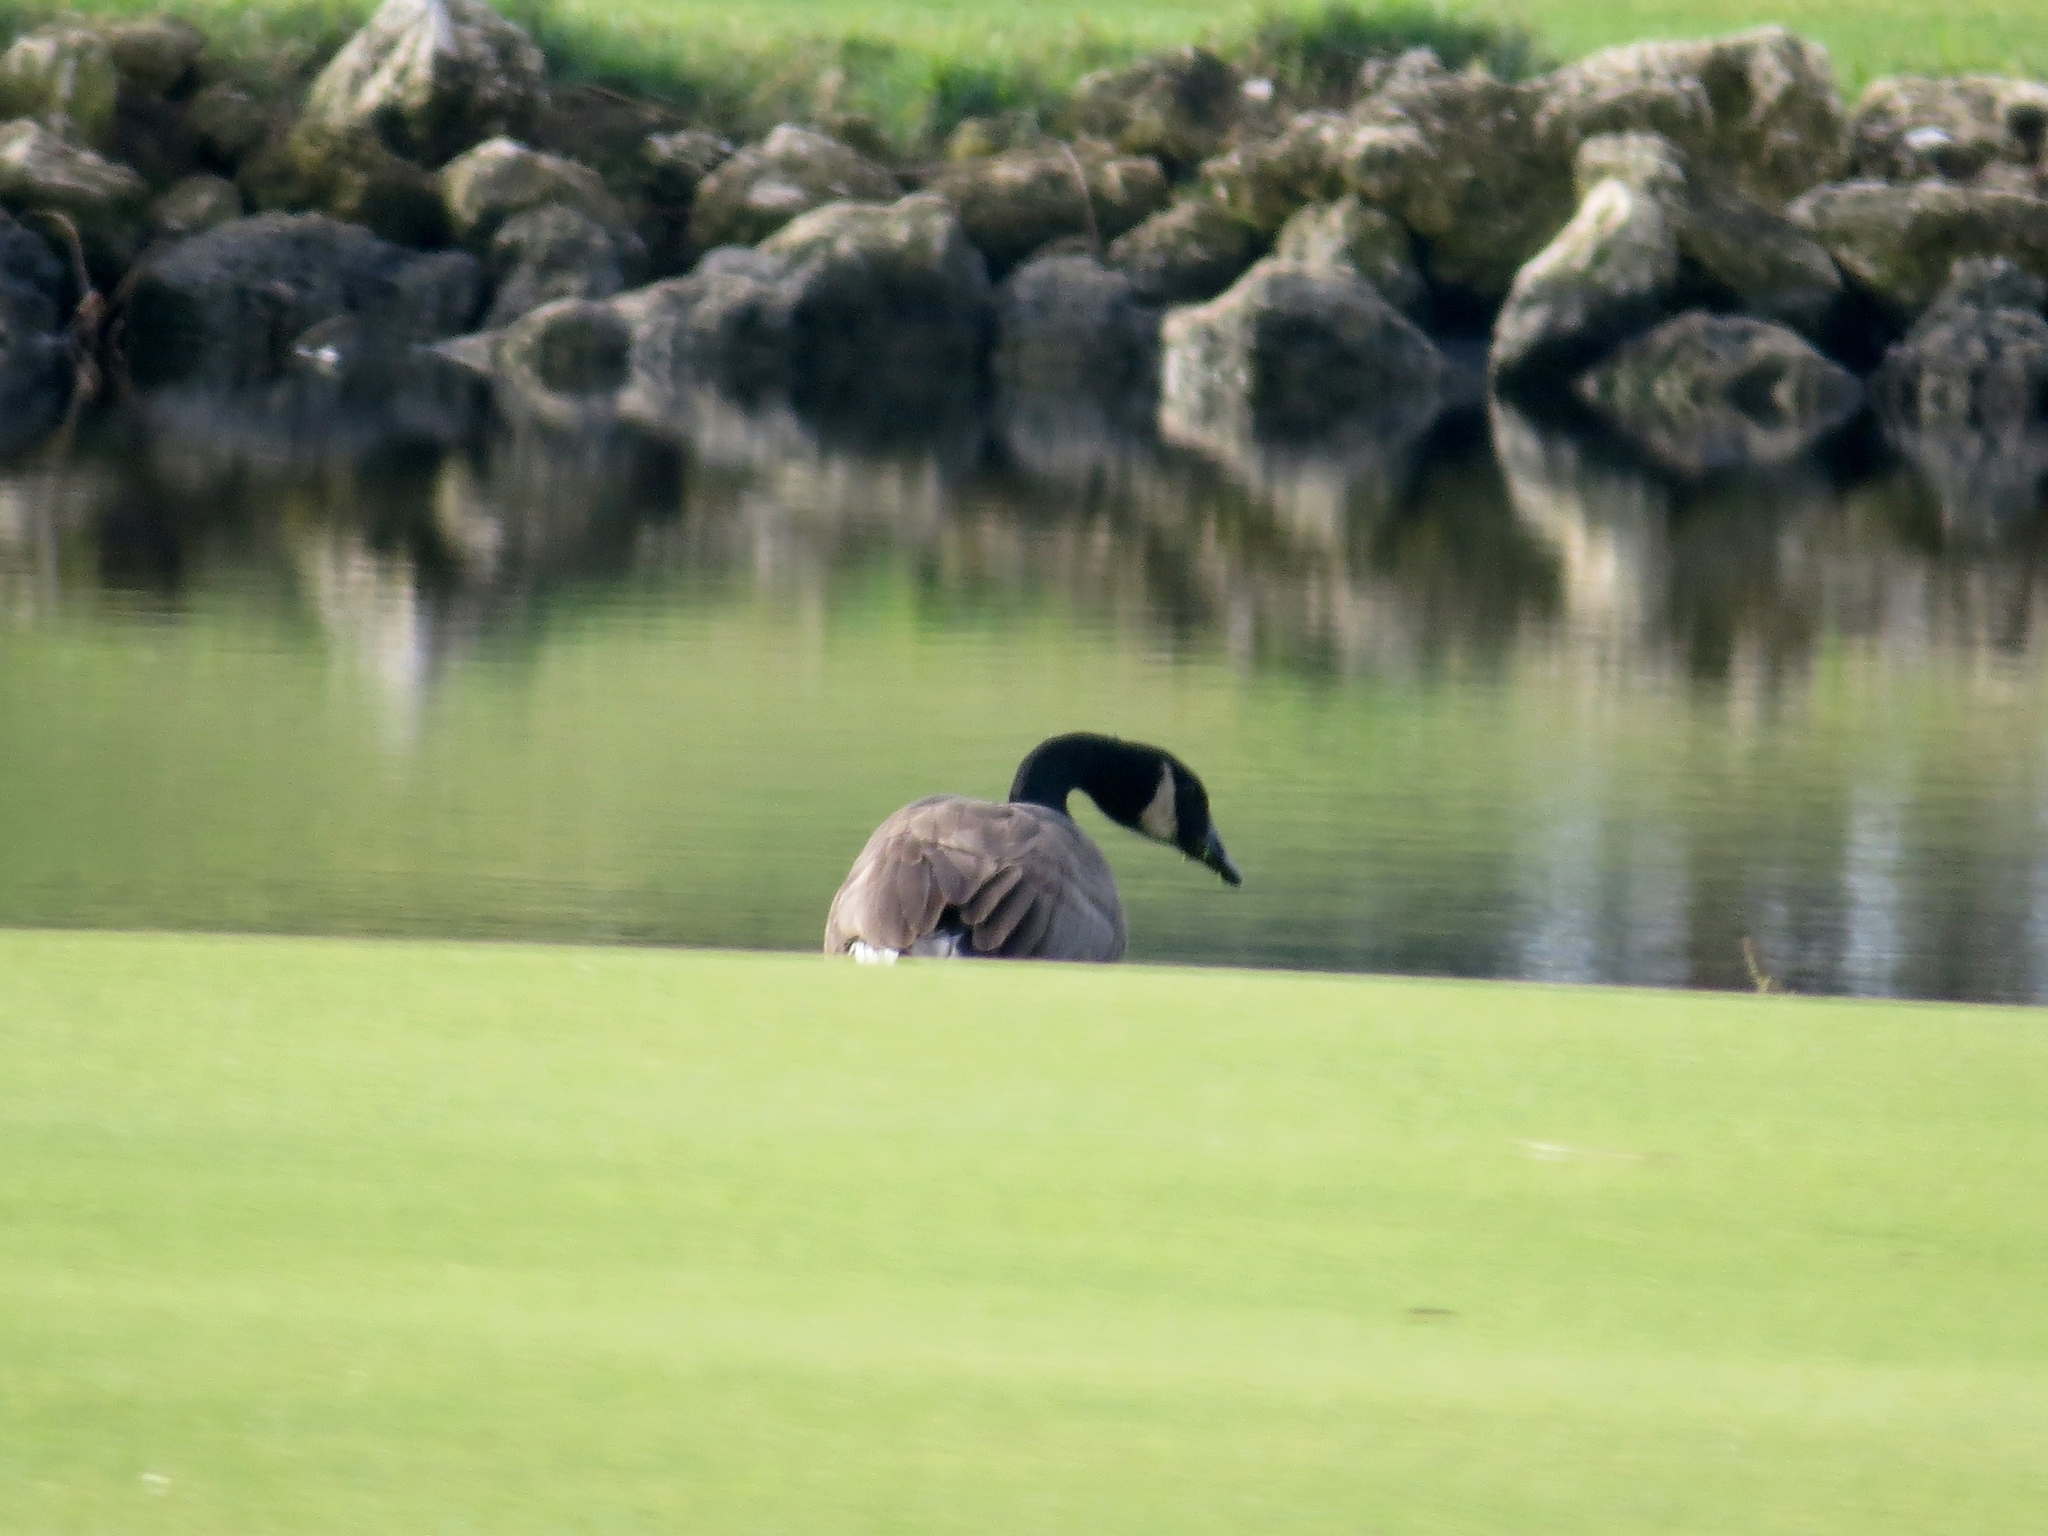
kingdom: Animalia
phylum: Chordata
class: Aves
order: Anseriformes
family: Anatidae
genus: Branta
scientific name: Branta canadensis
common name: Canada goose
